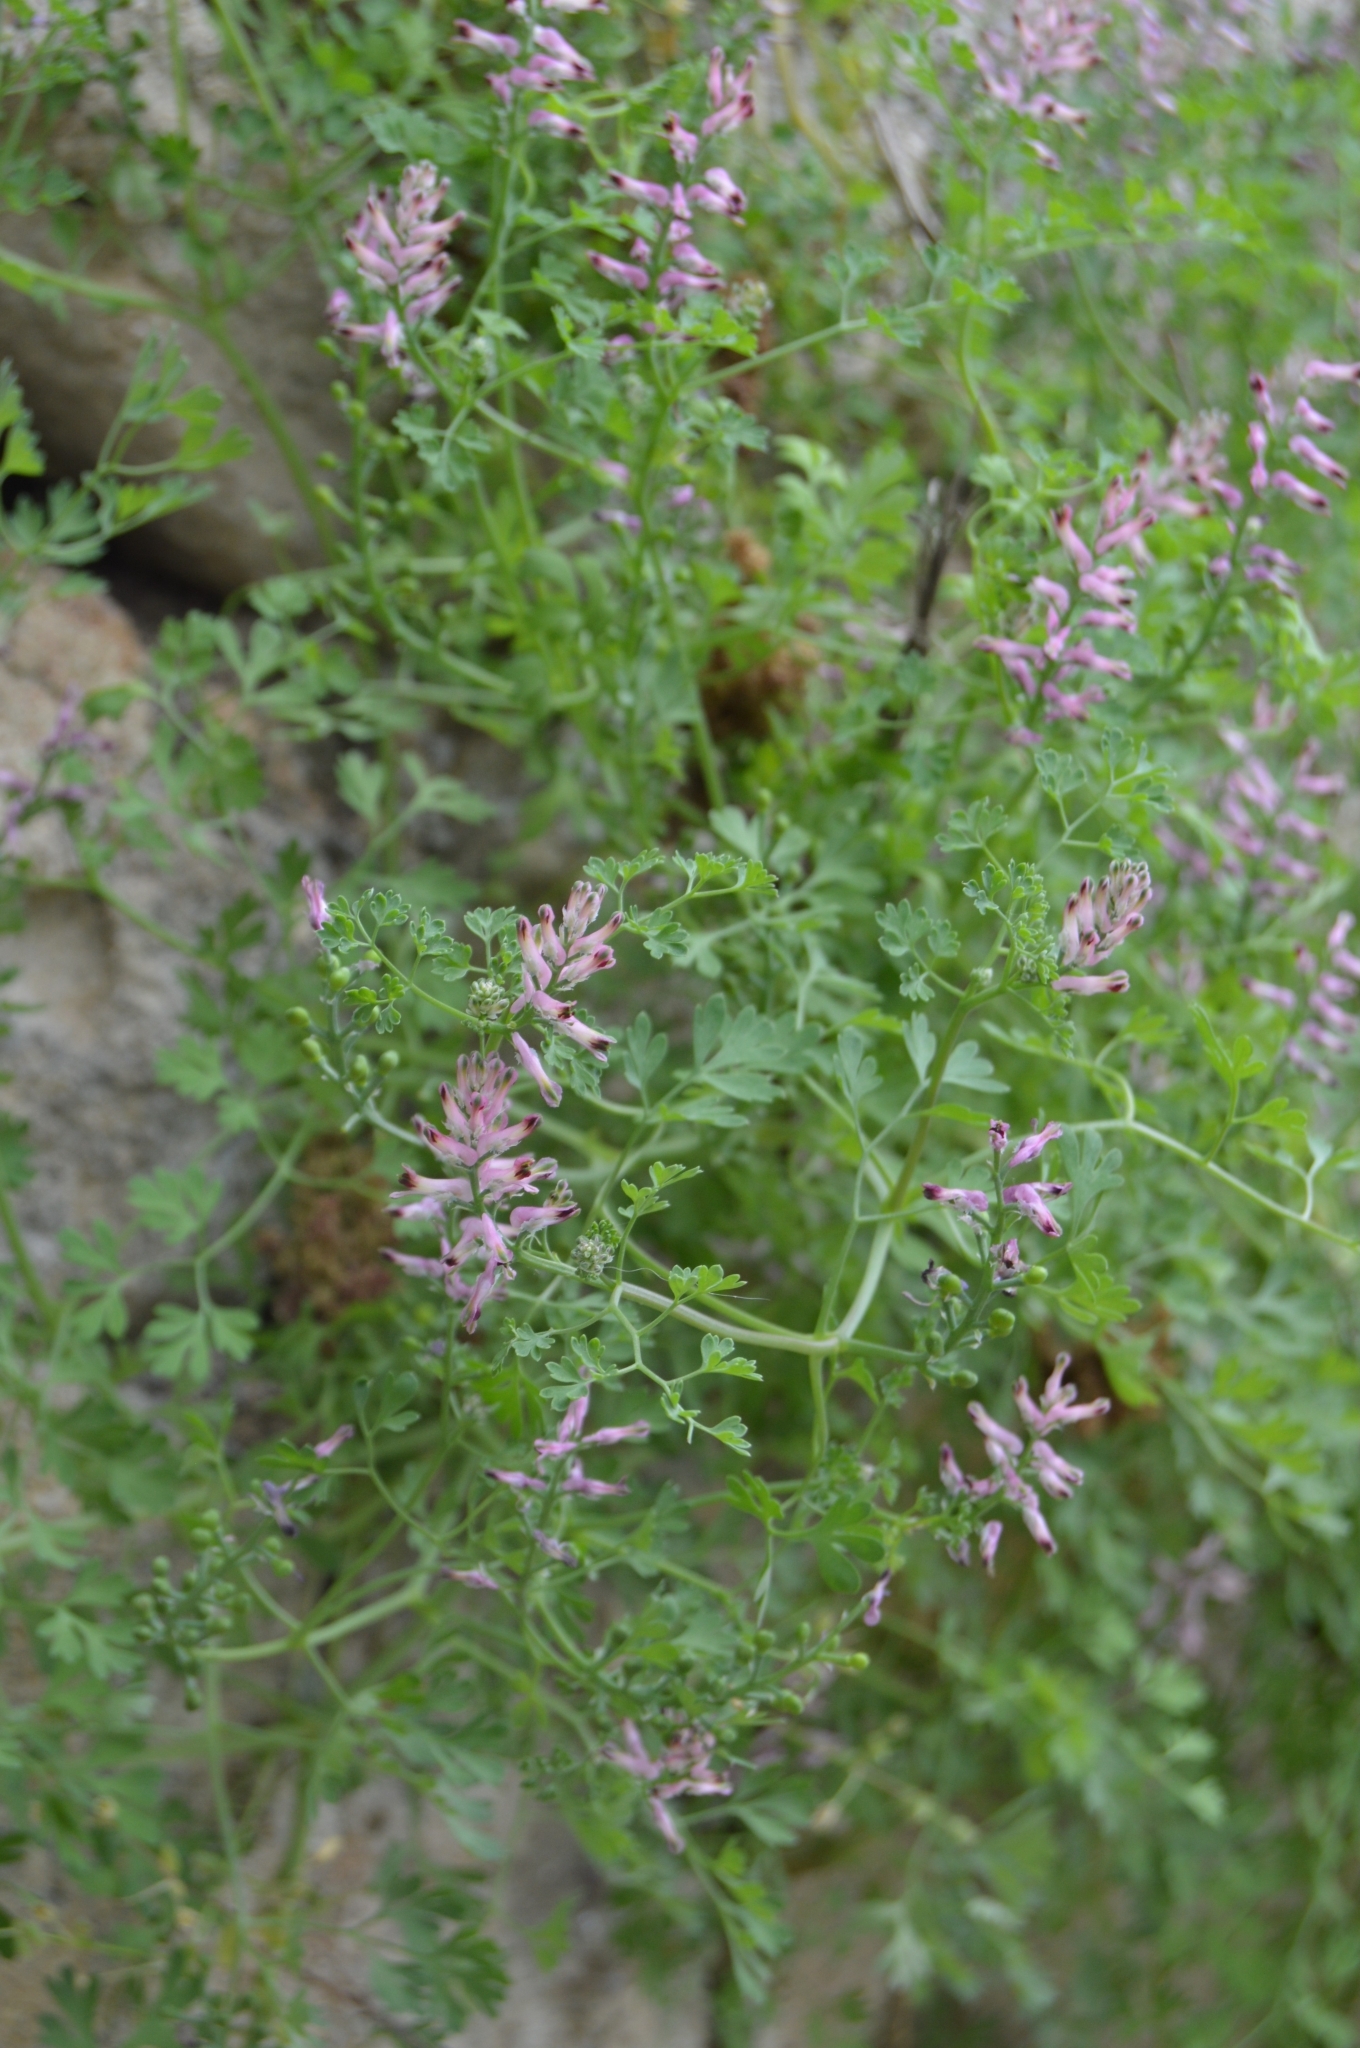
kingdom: Plantae
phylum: Tracheophyta
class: Magnoliopsida
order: Ranunculales
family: Papaveraceae
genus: Fumaria
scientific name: Fumaria officinalis
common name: Common fumitory
